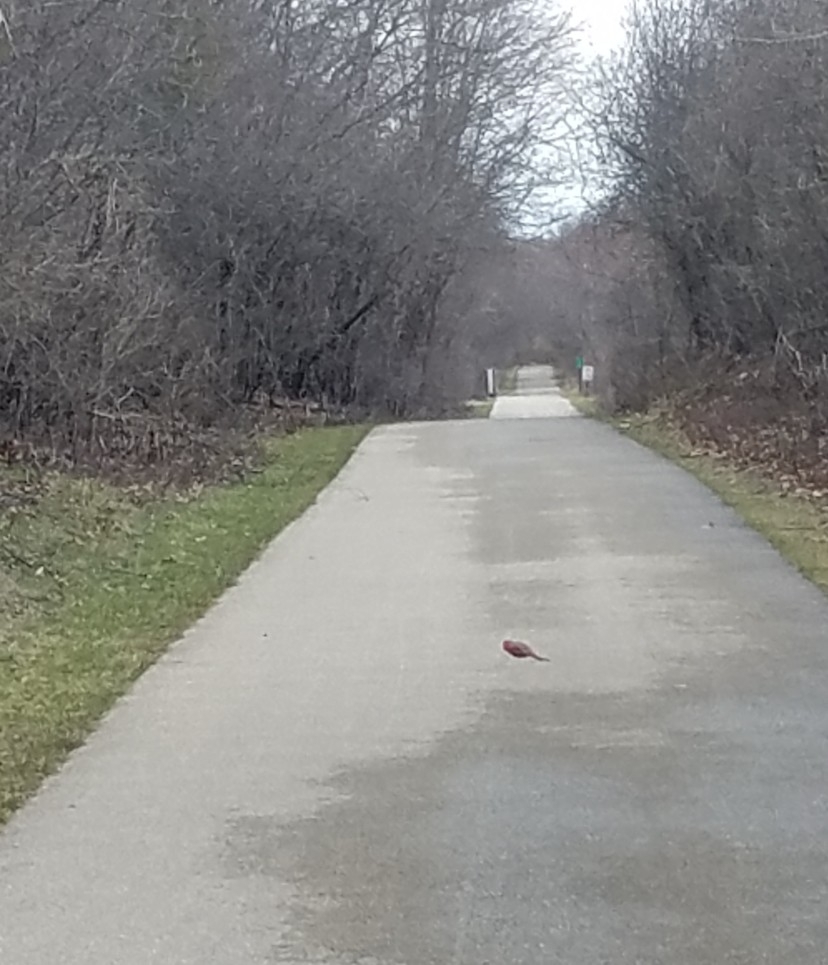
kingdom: Animalia
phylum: Chordata
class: Aves
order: Passeriformes
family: Cardinalidae
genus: Cardinalis
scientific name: Cardinalis cardinalis
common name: Northern cardinal
